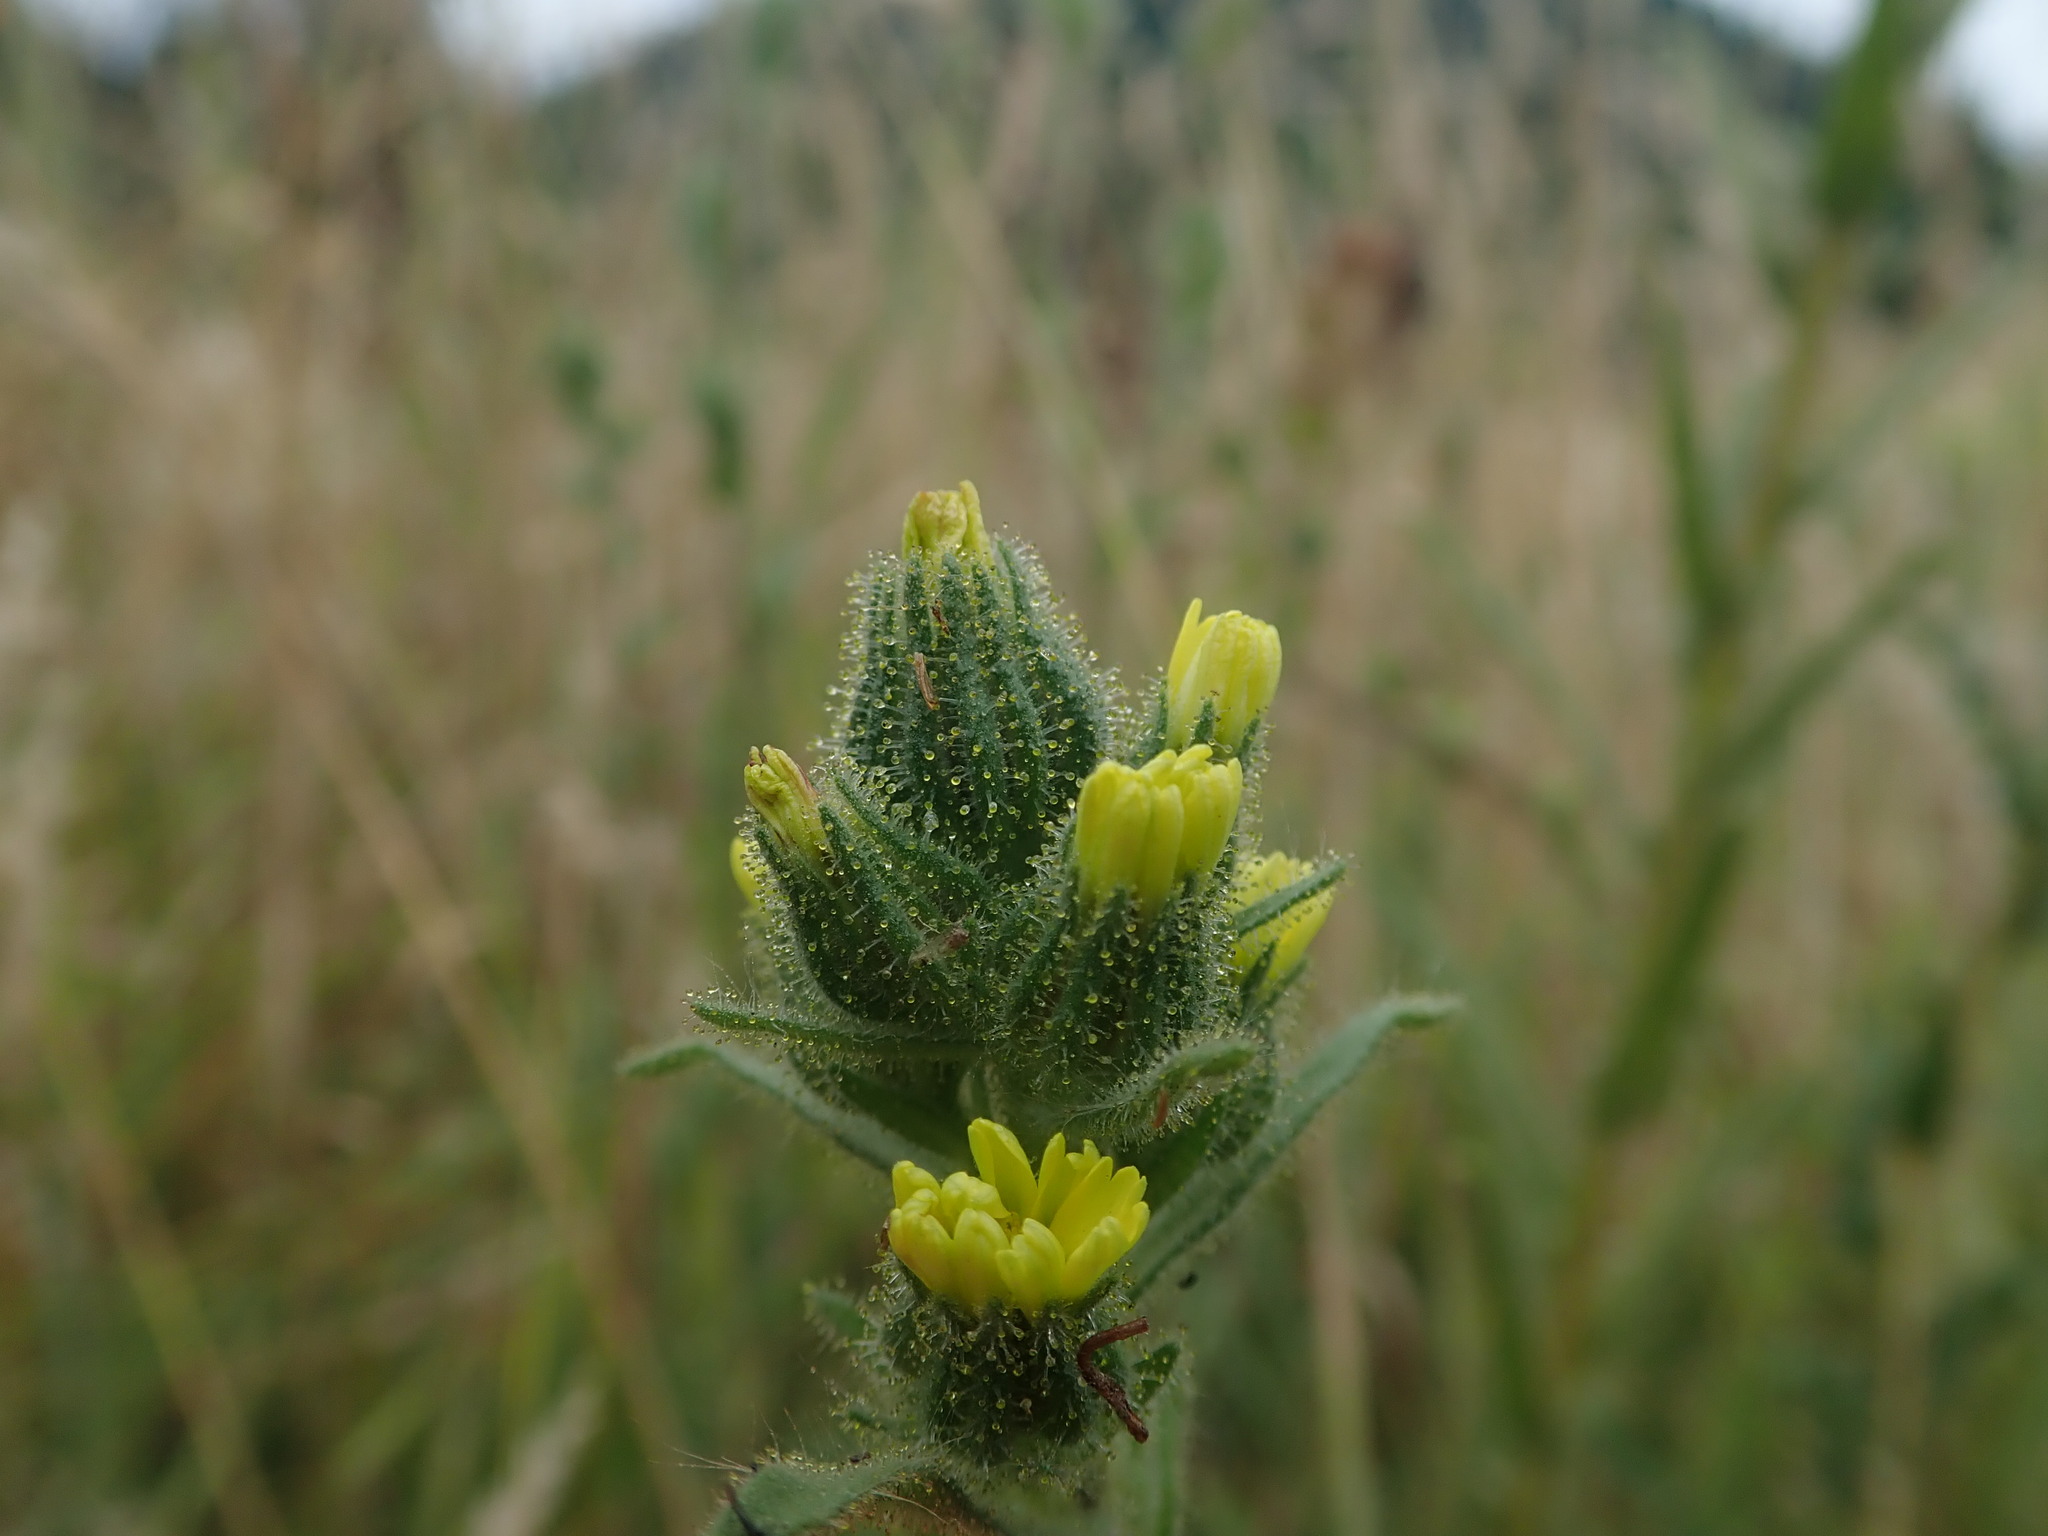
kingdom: Plantae
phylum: Tracheophyta
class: Magnoliopsida
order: Asterales
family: Asteraceae
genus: Madia
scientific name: Madia sativa
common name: Coast tarweed
